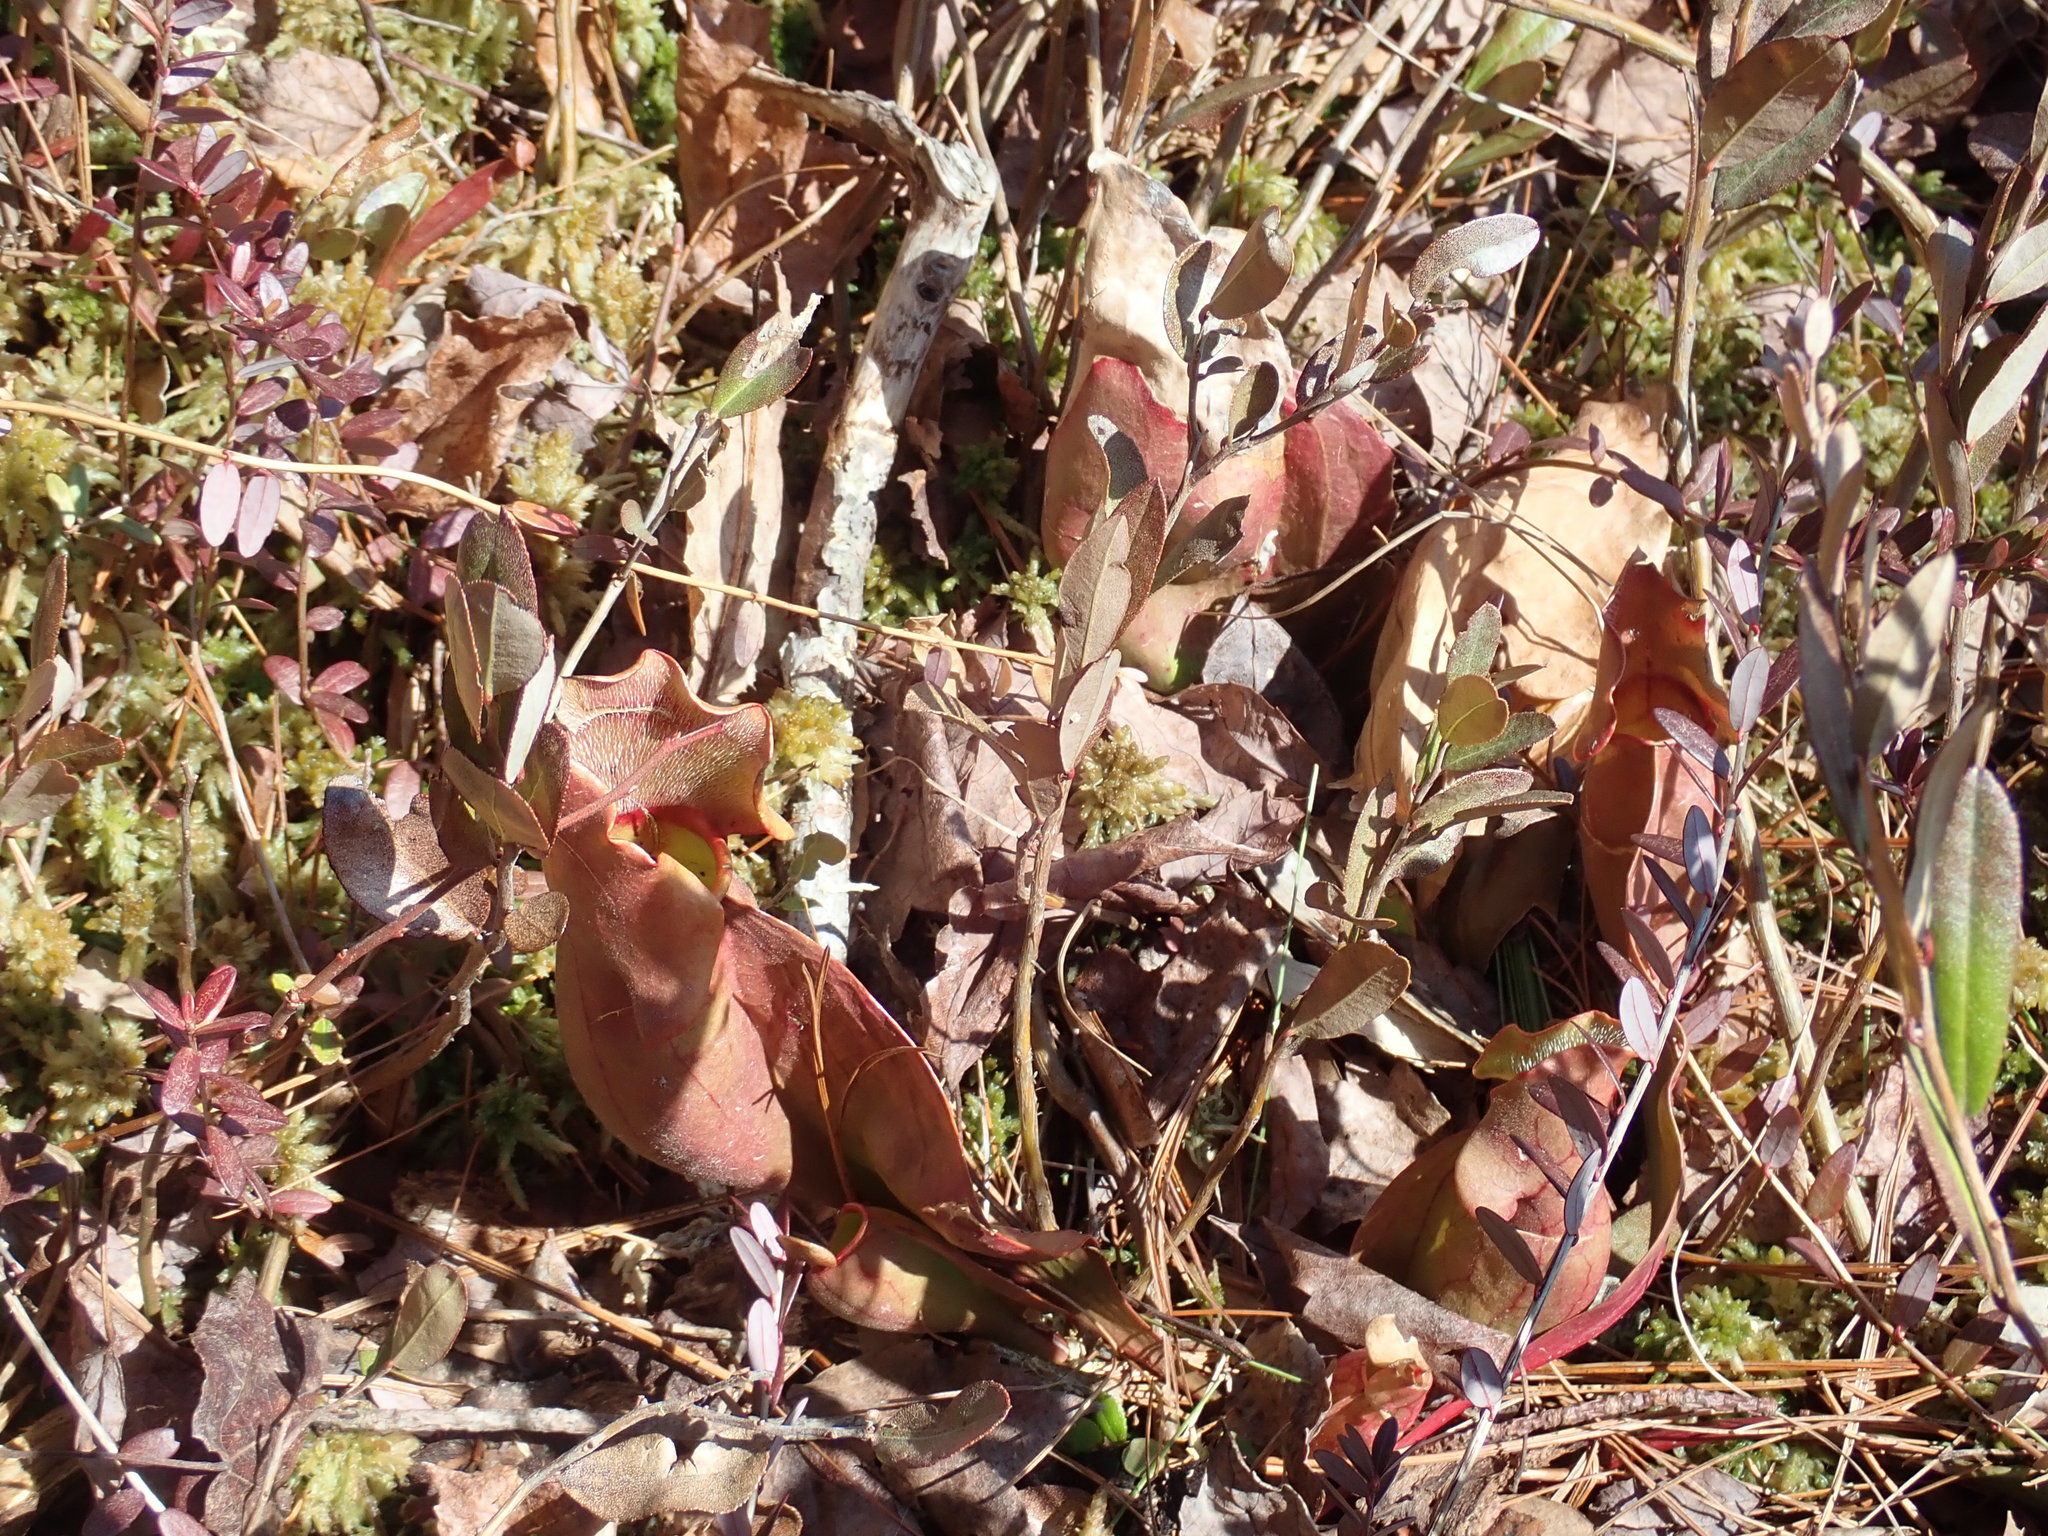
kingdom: Plantae
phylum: Tracheophyta
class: Magnoliopsida
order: Ericales
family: Sarraceniaceae
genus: Sarracenia
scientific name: Sarracenia purpurea
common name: Pitcherplant
